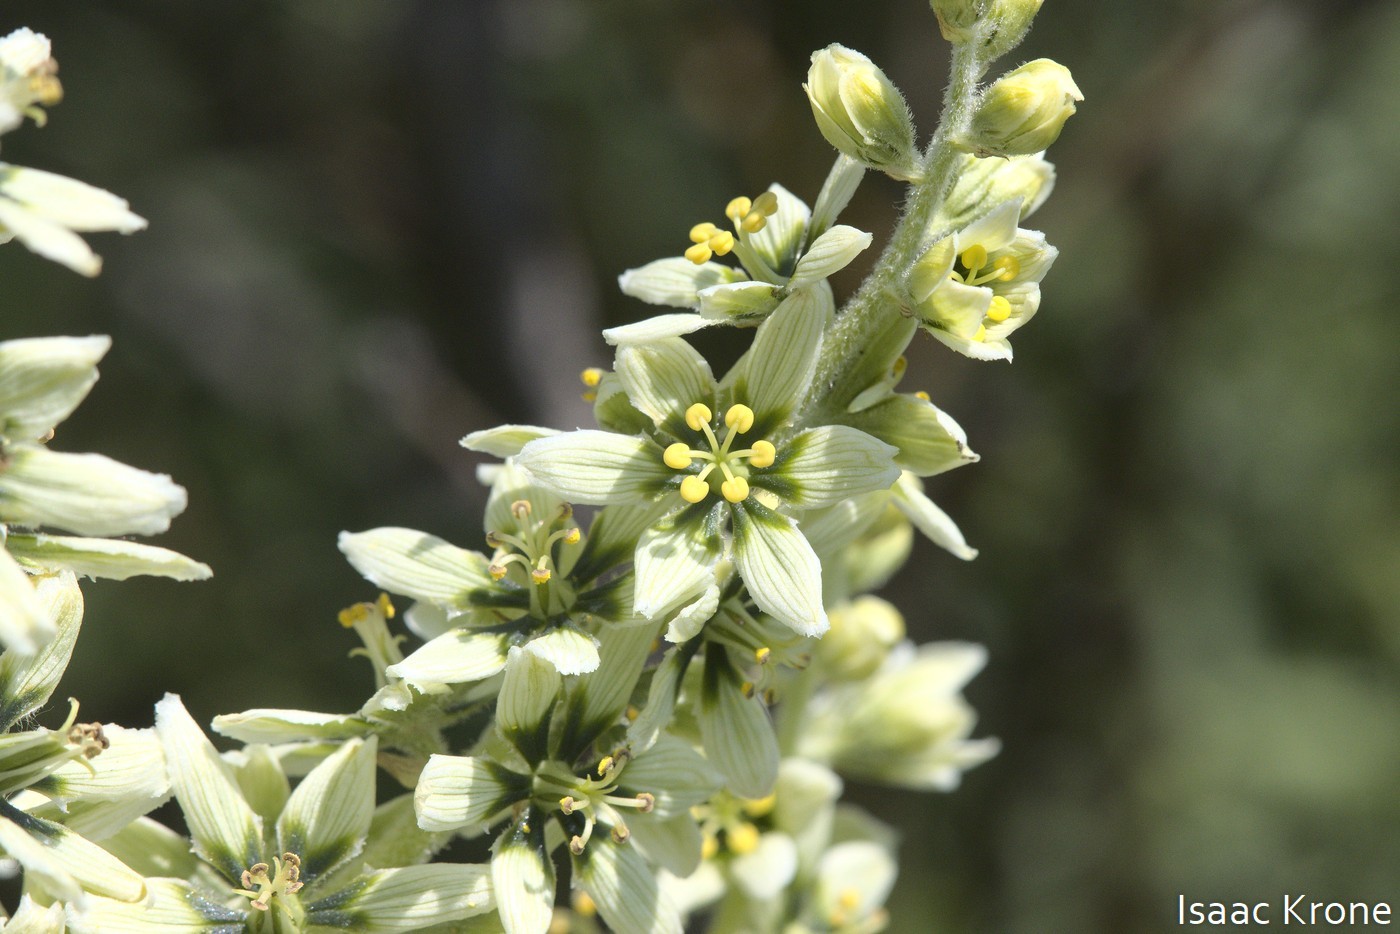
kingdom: Plantae
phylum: Tracheophyta
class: Liliopsida
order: Liliales
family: Melanthiaceae
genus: Veratrum
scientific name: Veratrum californicum
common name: California veratrum
